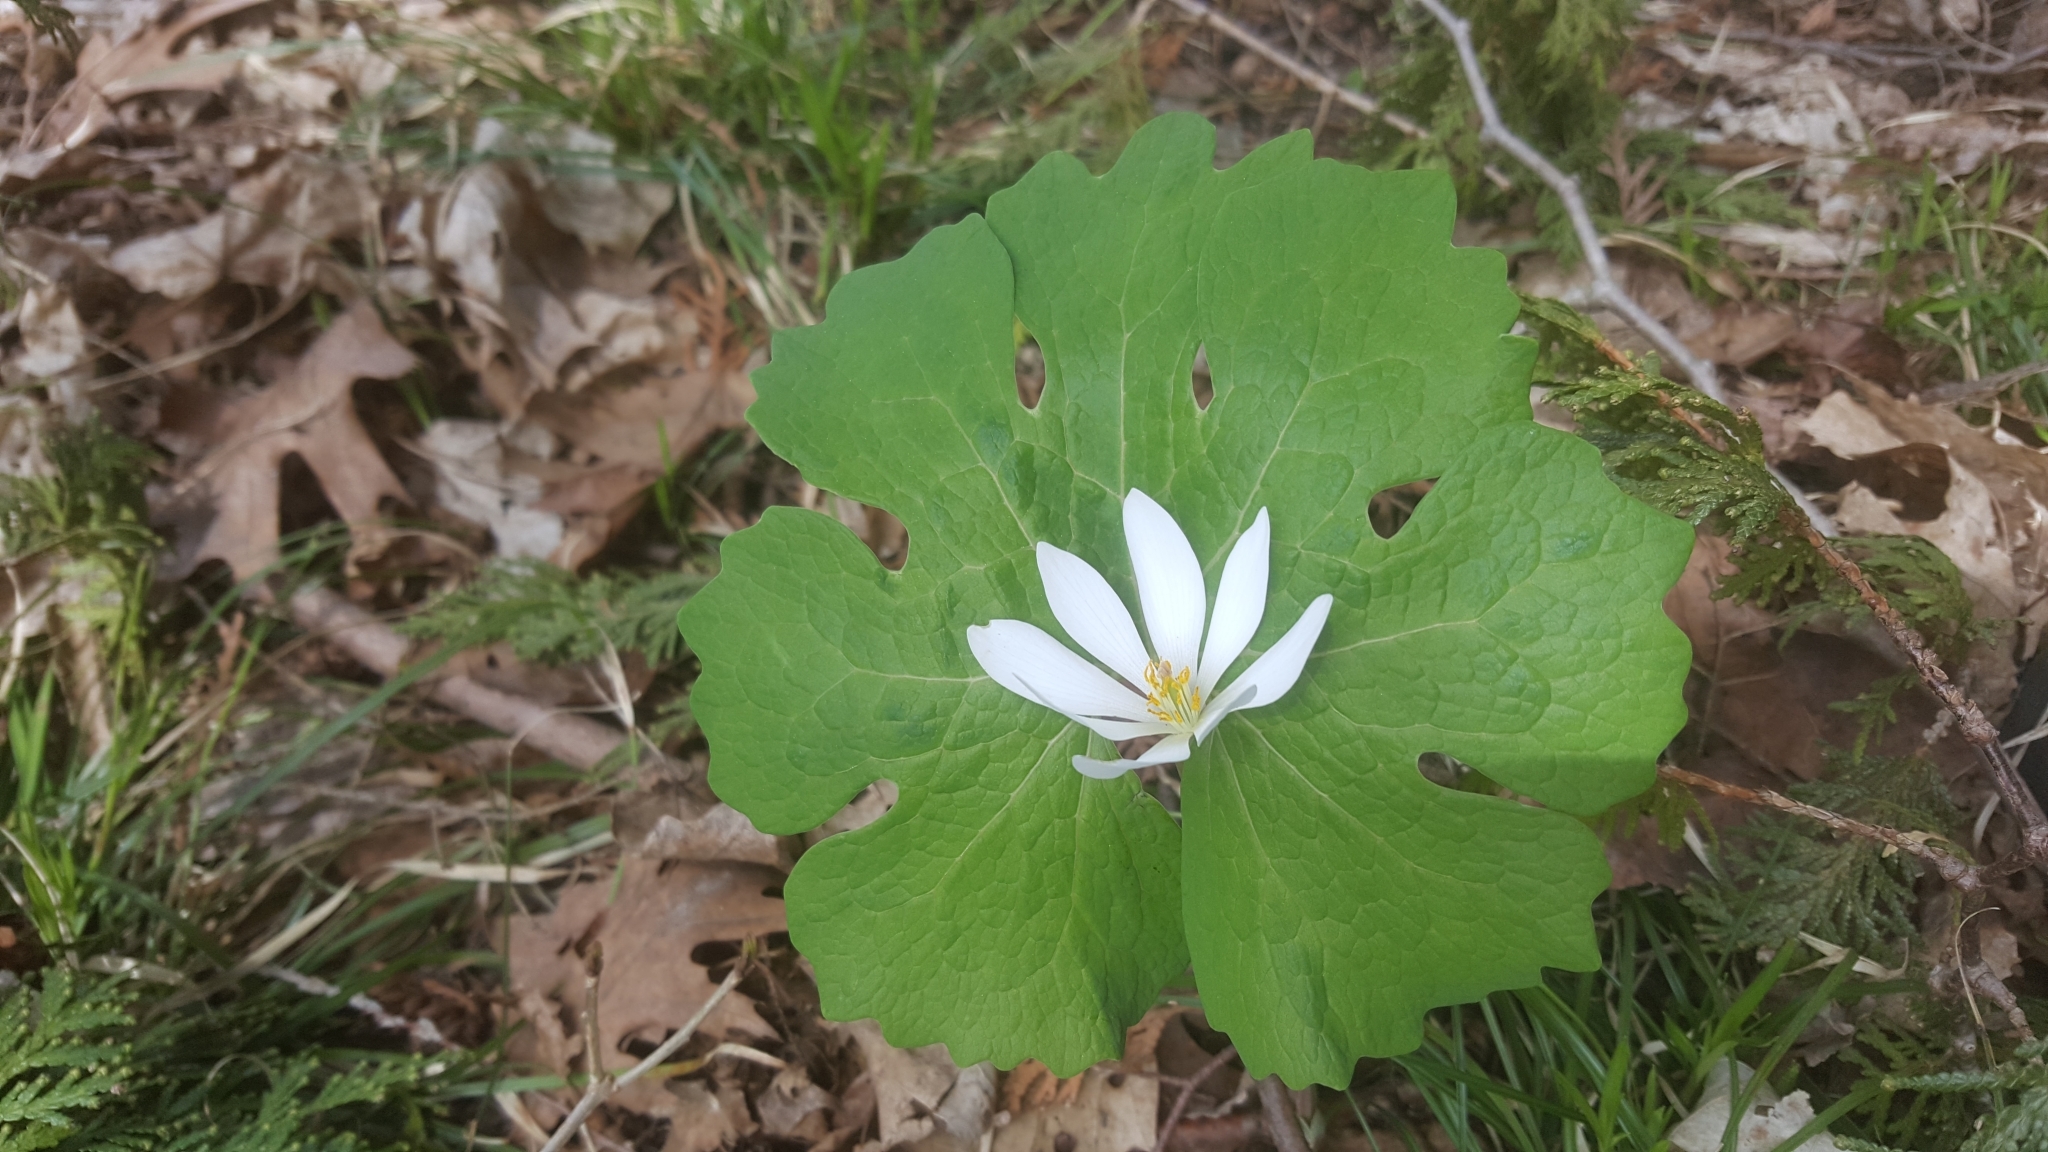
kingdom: Plantae
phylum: Tracheophyta
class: Magnoliopsida
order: Ranunculales
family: Papaveraceae
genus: Sanguinaria
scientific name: Sanguinaria canadensis
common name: Bloodroot
